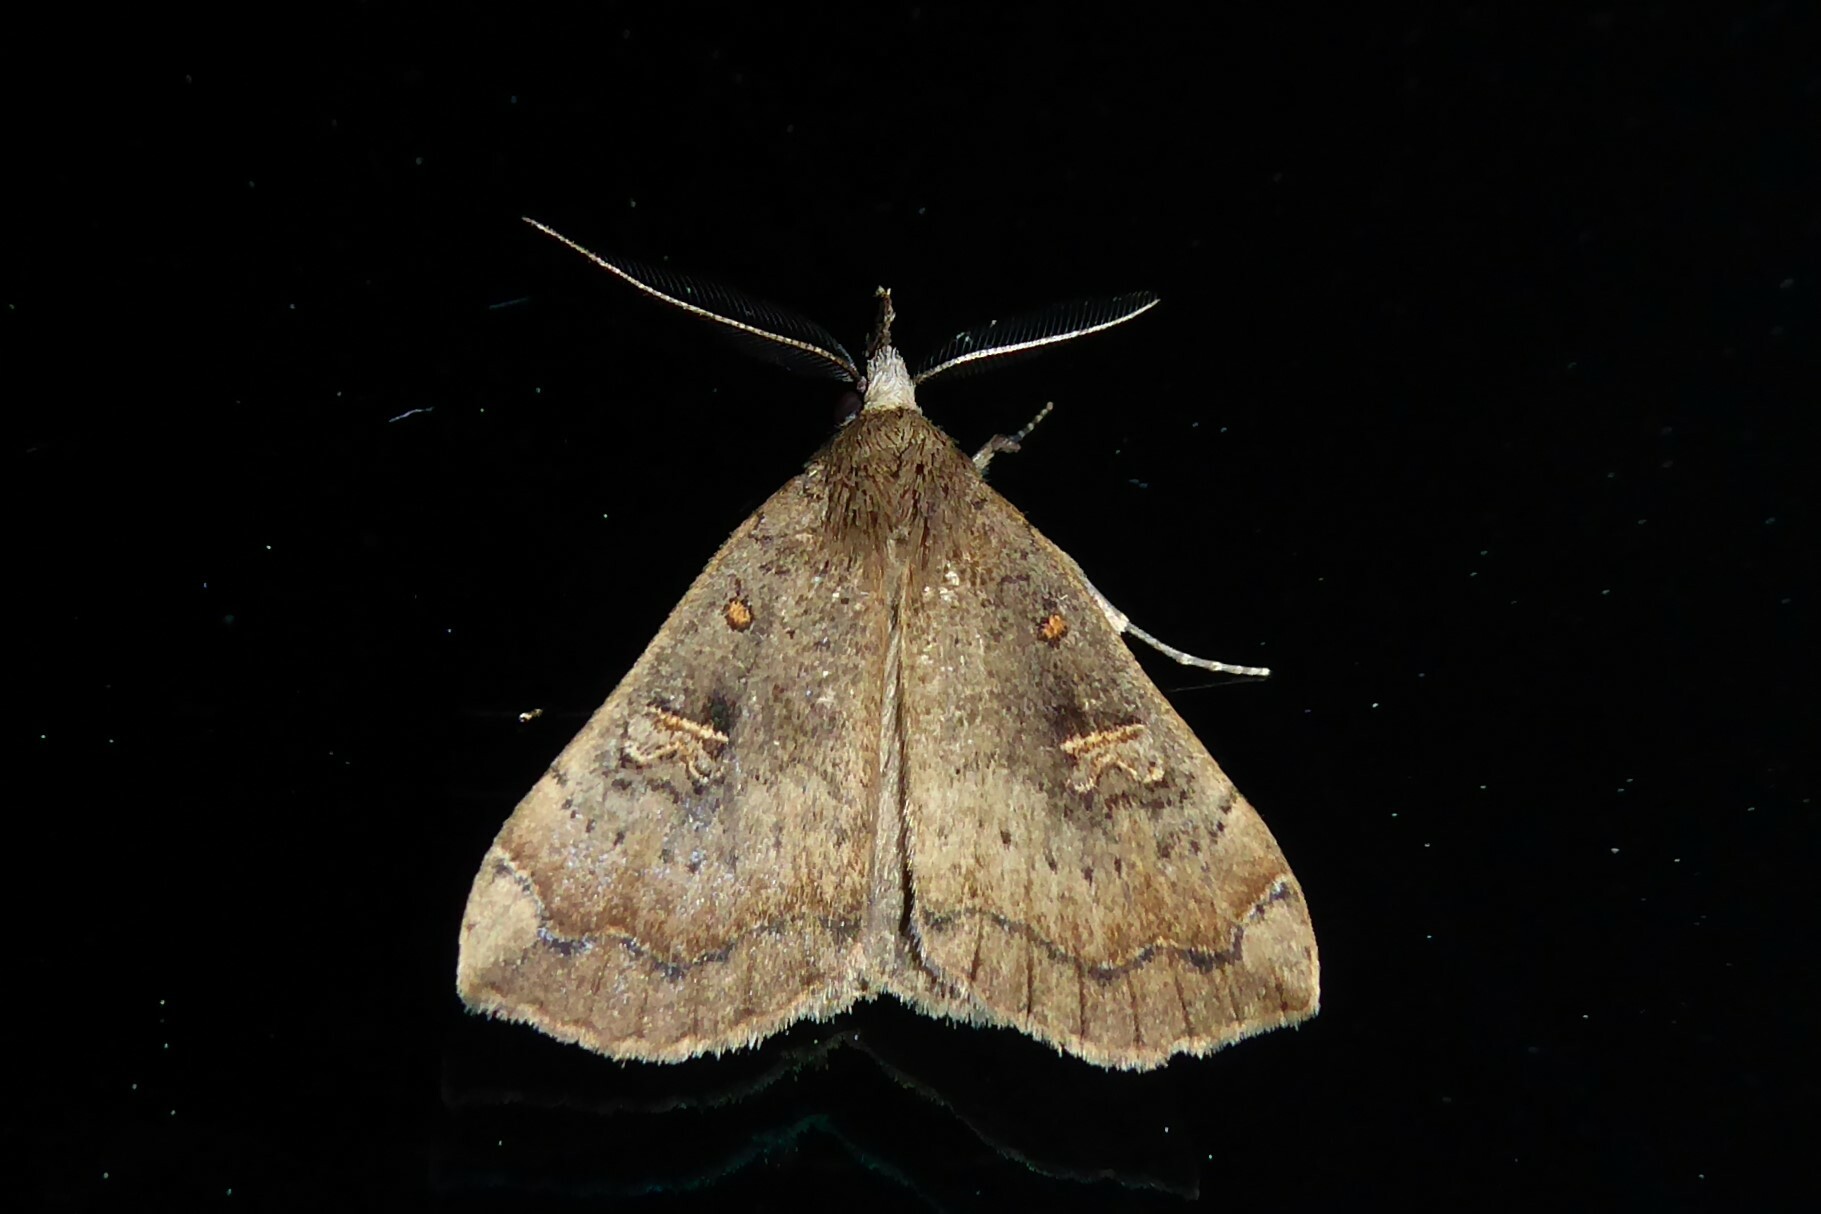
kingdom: Animalia
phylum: Arthropoda
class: Insecta
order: Lepidoptera
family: Erebidae
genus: Rhapsa
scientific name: Rhapsa scotosialis
